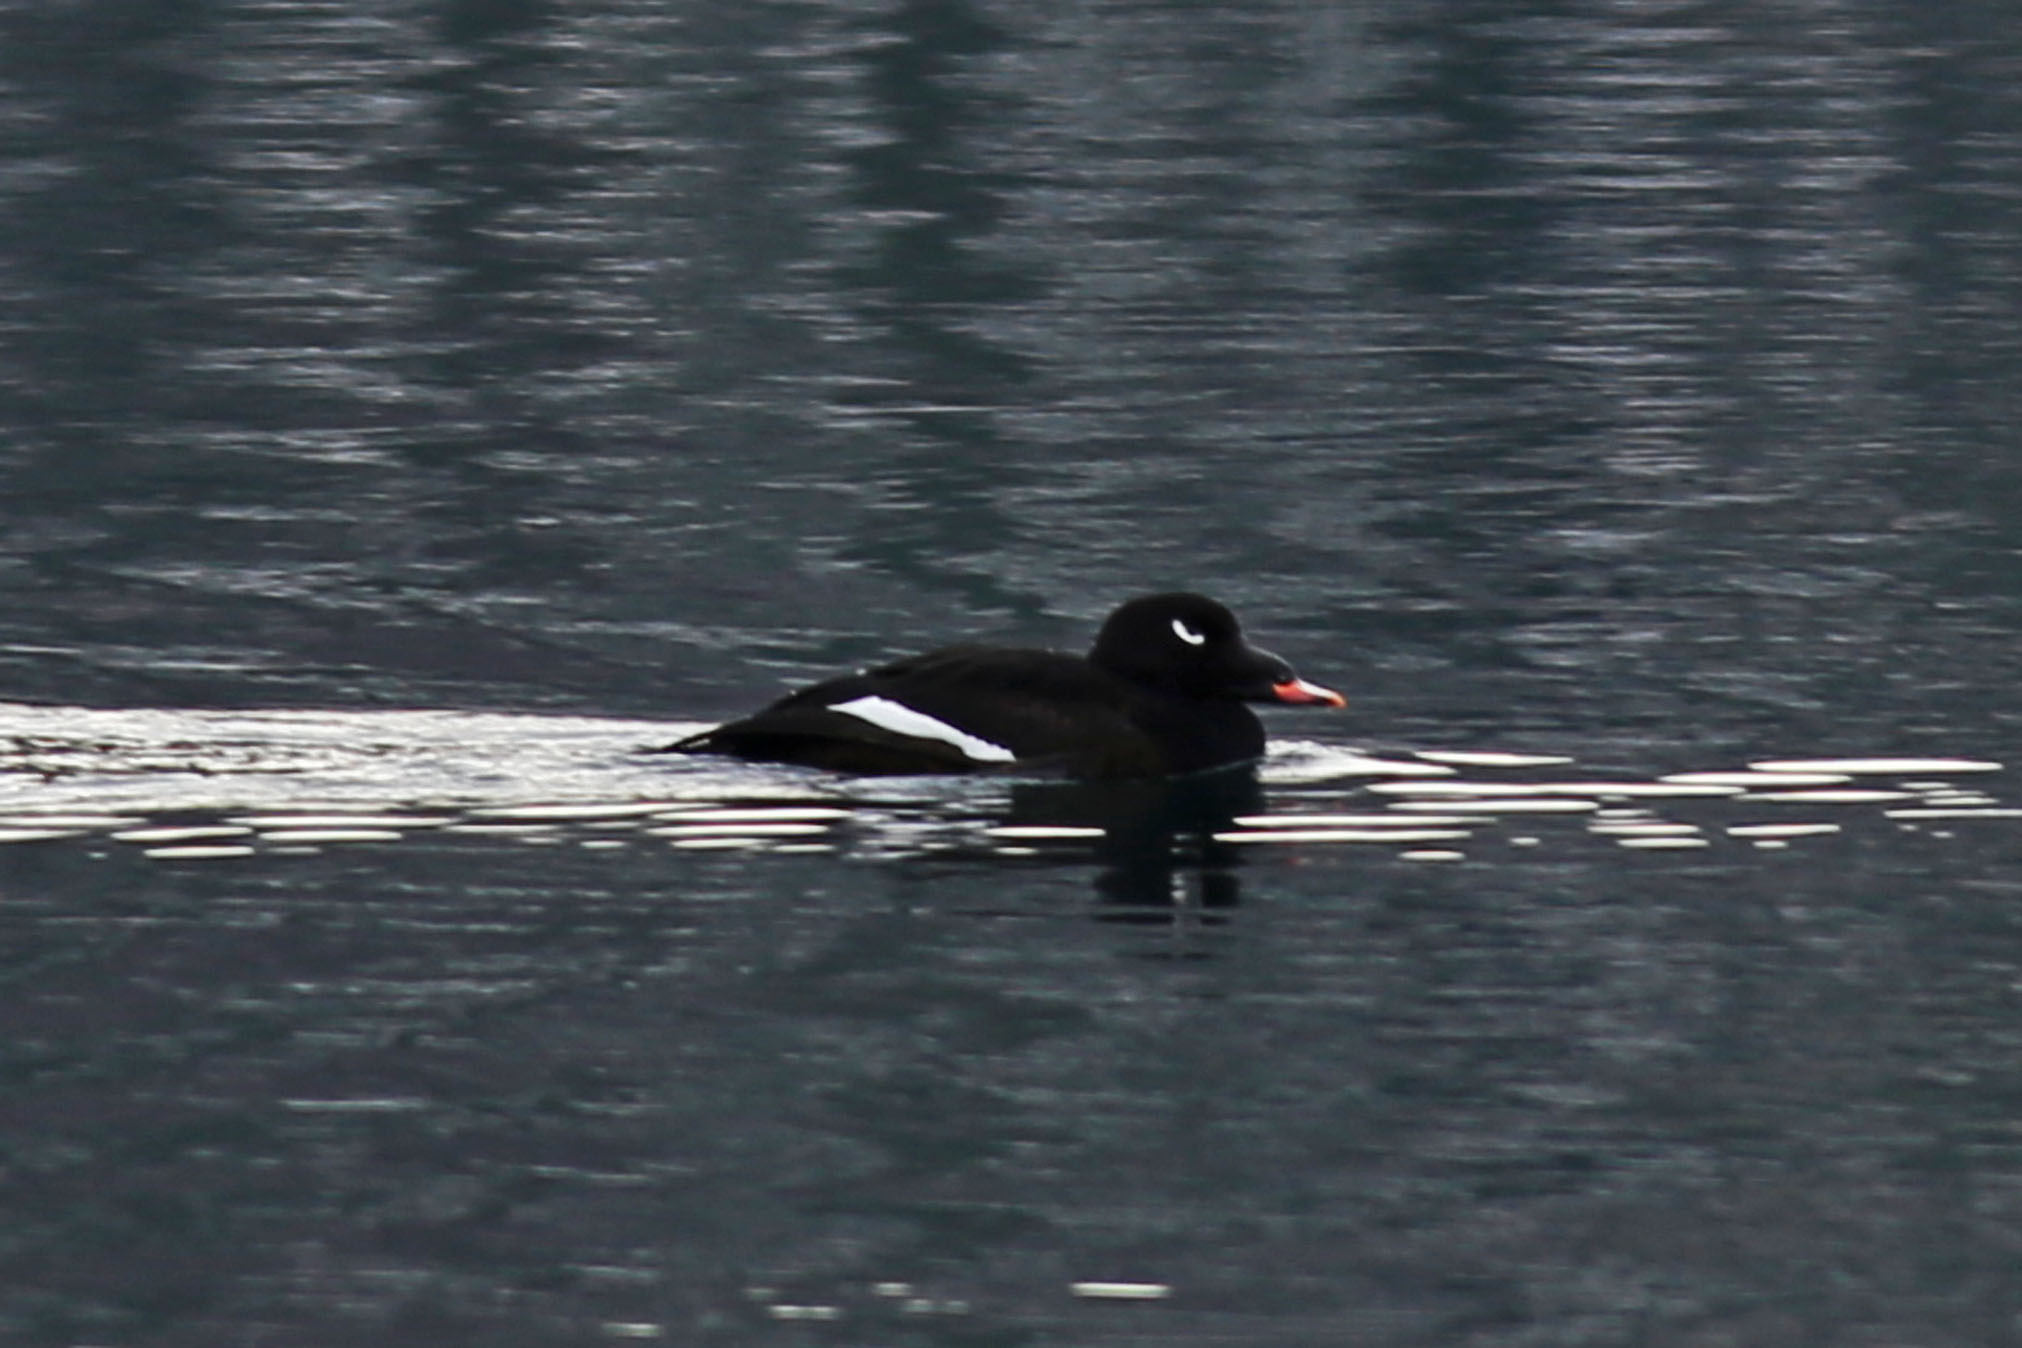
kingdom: Animalia
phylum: Chordata
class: Aves
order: Anseriformes
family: Anatidae
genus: Melanitta
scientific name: Melanitta deglandi
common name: White-winged scoter
